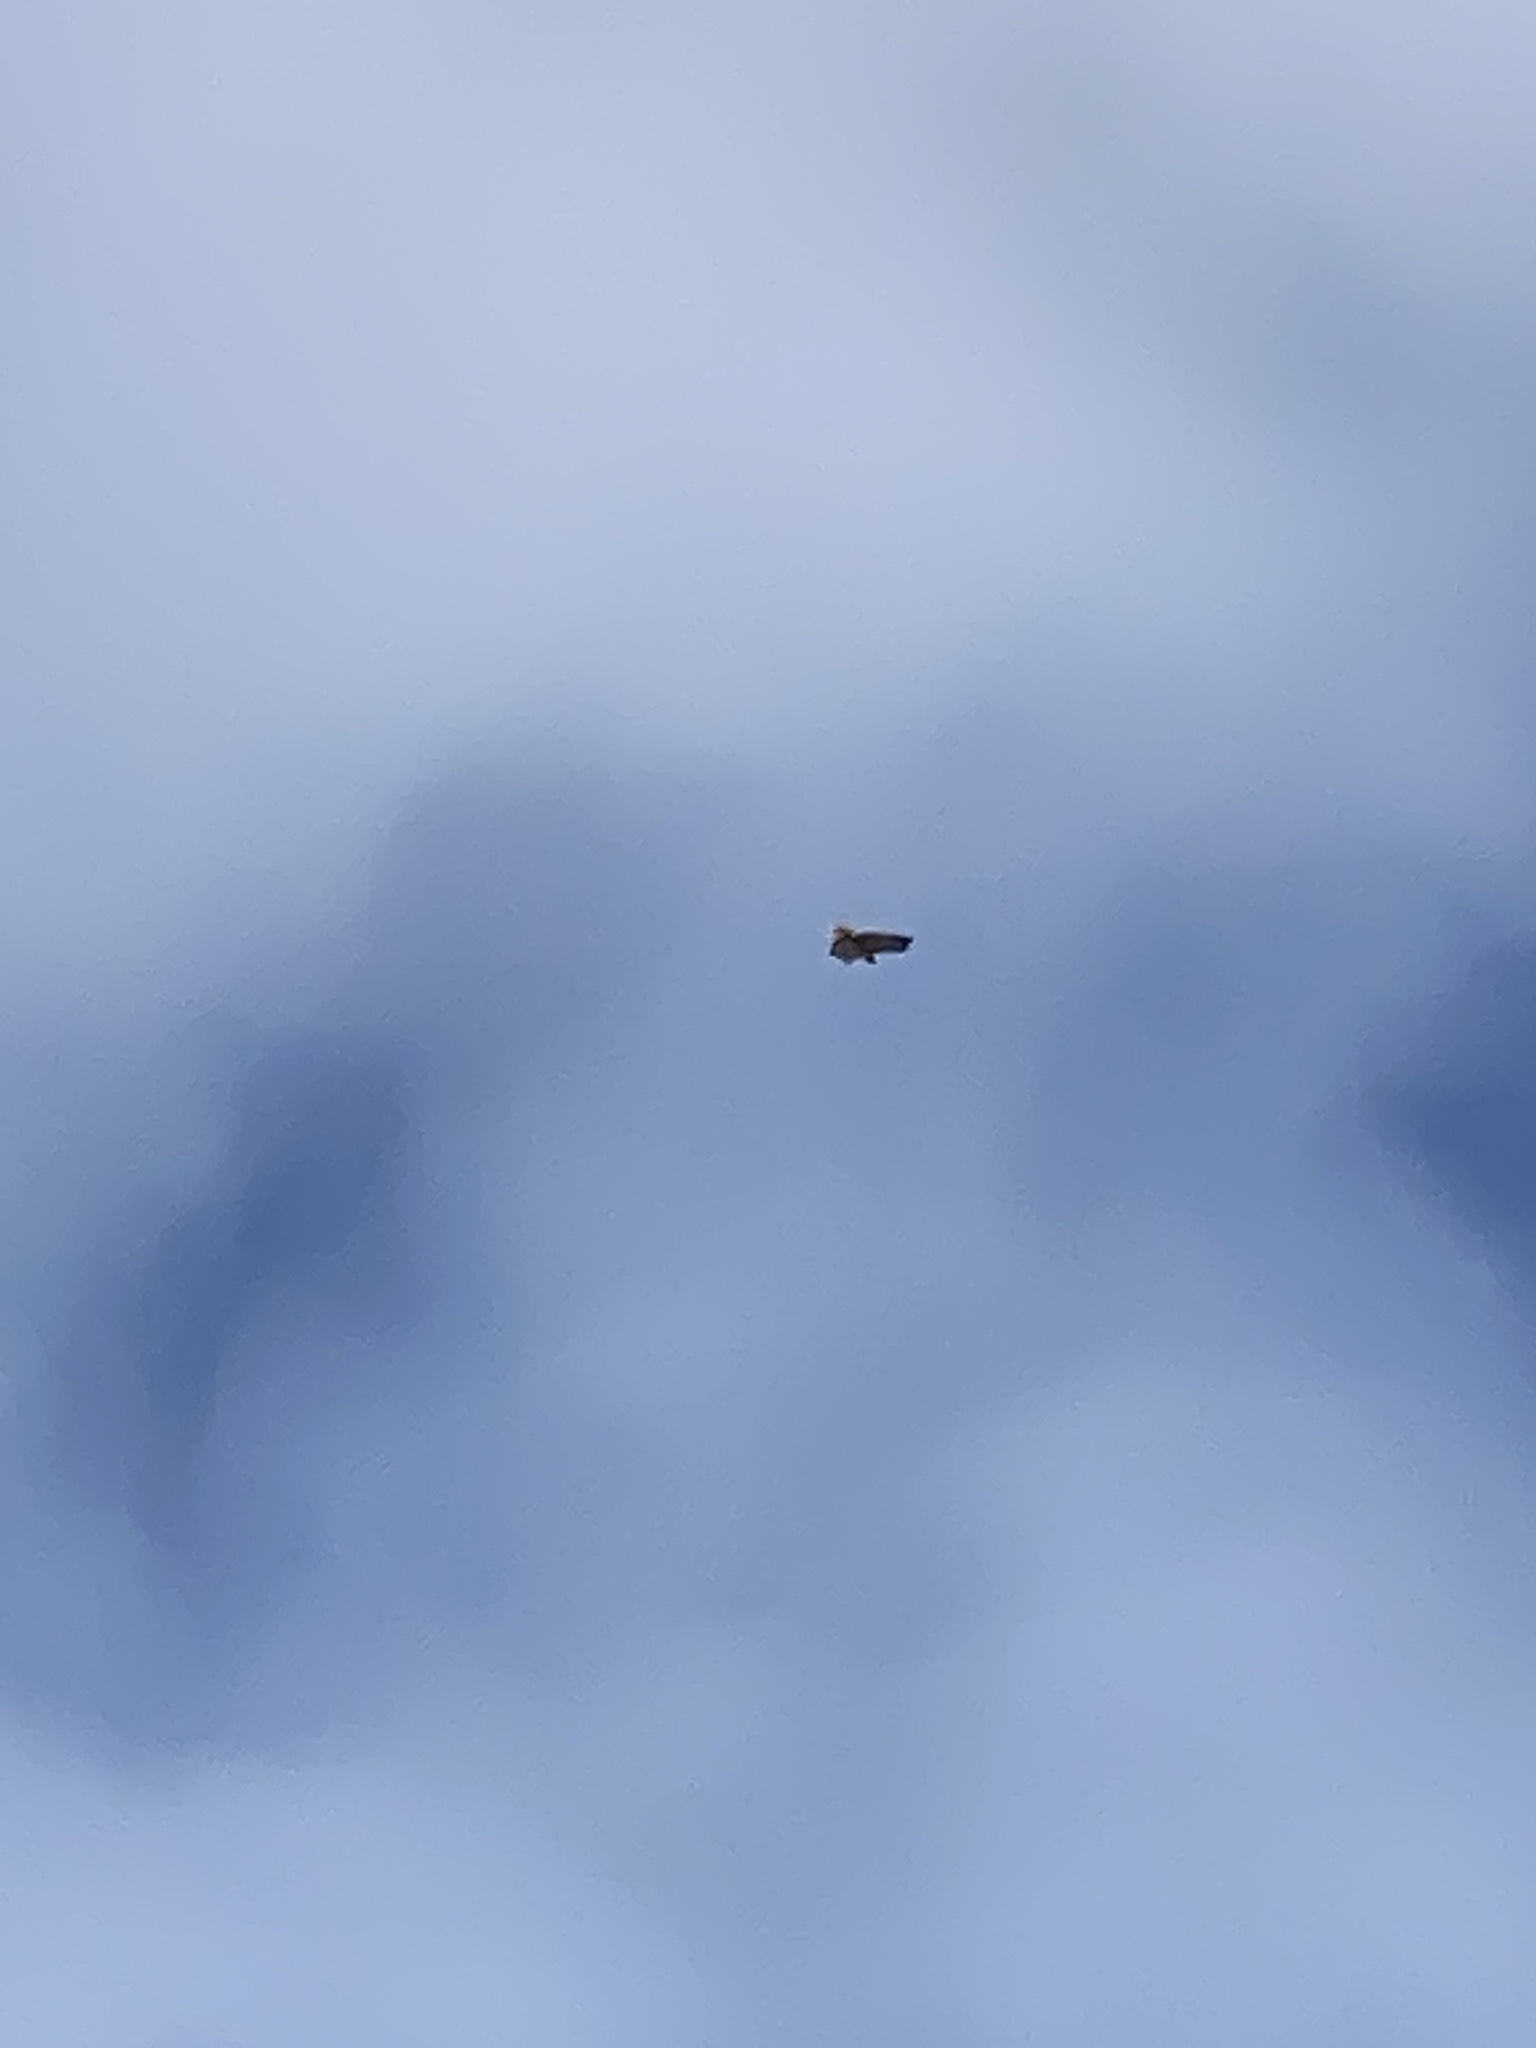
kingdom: Animalia
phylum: Chordata
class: Aves
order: Accipitriformes
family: Accipitridae
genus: Buteo
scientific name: Buteo jamaicensis
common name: Red-tailed hawk
